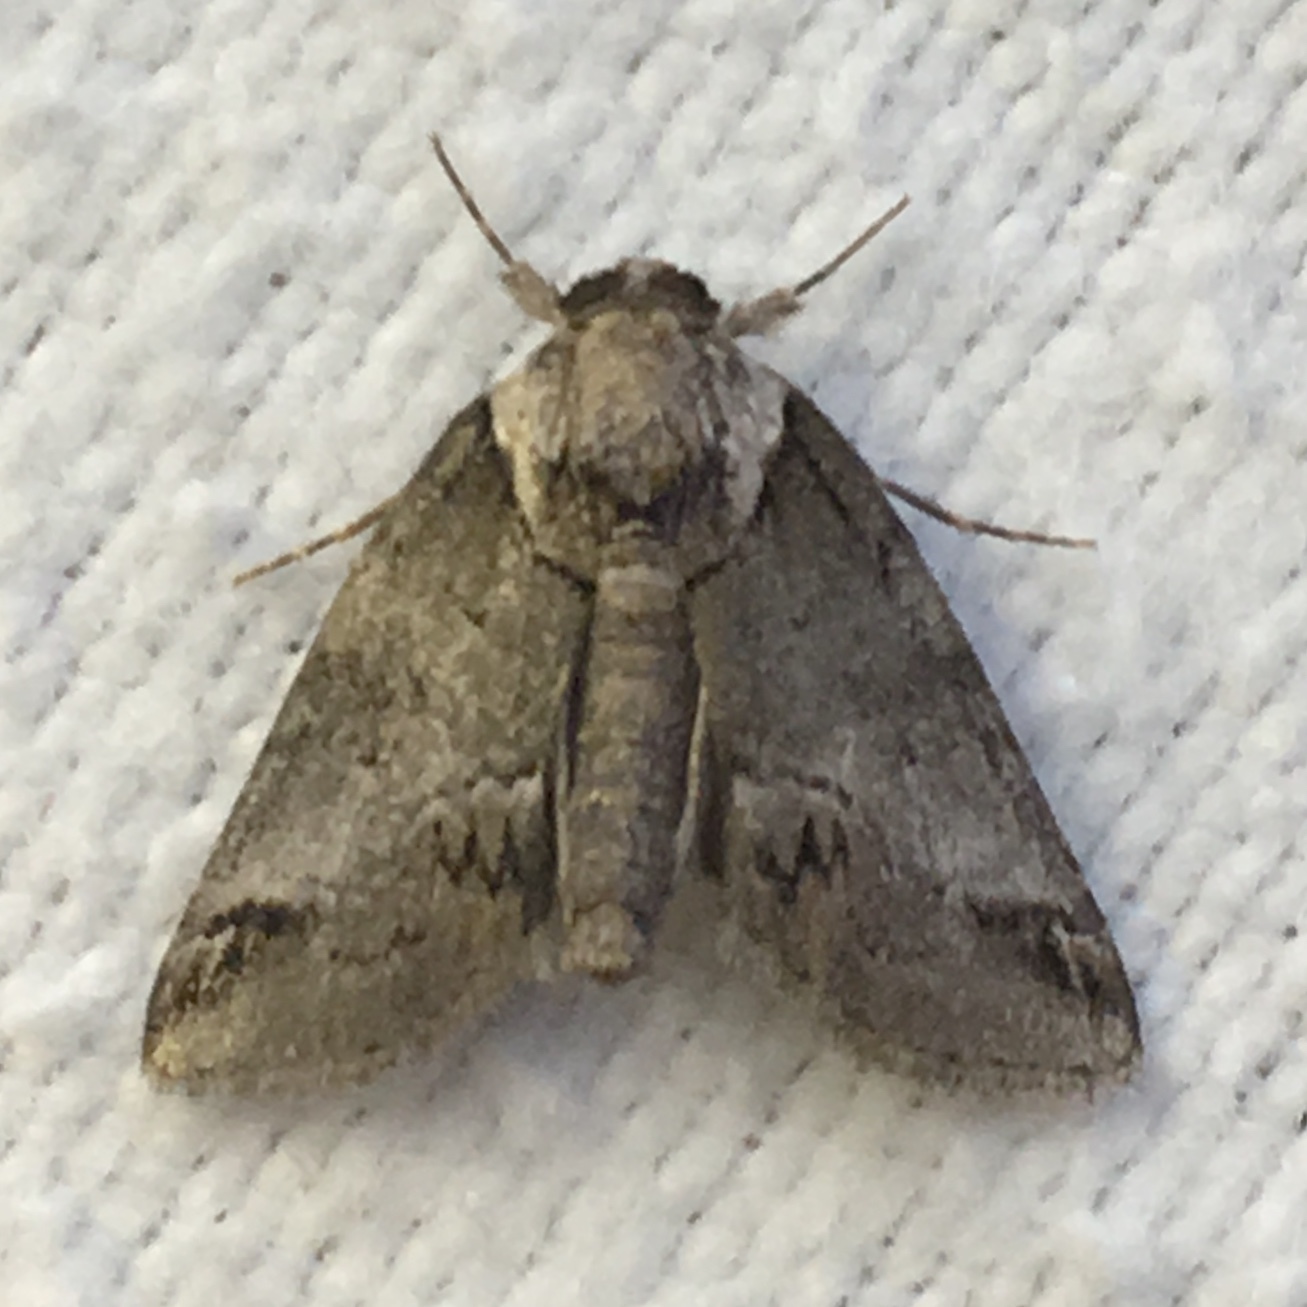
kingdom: Animalia
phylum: Arthropoda
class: Insecta
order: Lepidoptera
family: Nolidae
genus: Baileya
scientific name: Baileya australis
